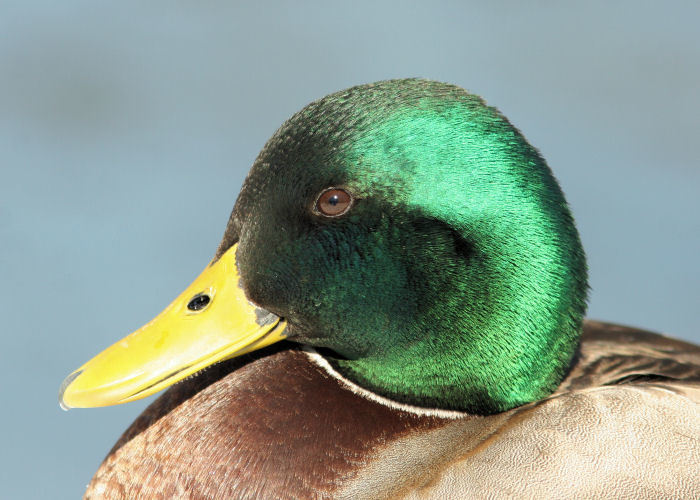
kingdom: Animalia
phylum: Chordata
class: Aves
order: Anseriformes
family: Anatidae
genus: Anas
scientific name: Anas platyrhynchos
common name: Mallard
